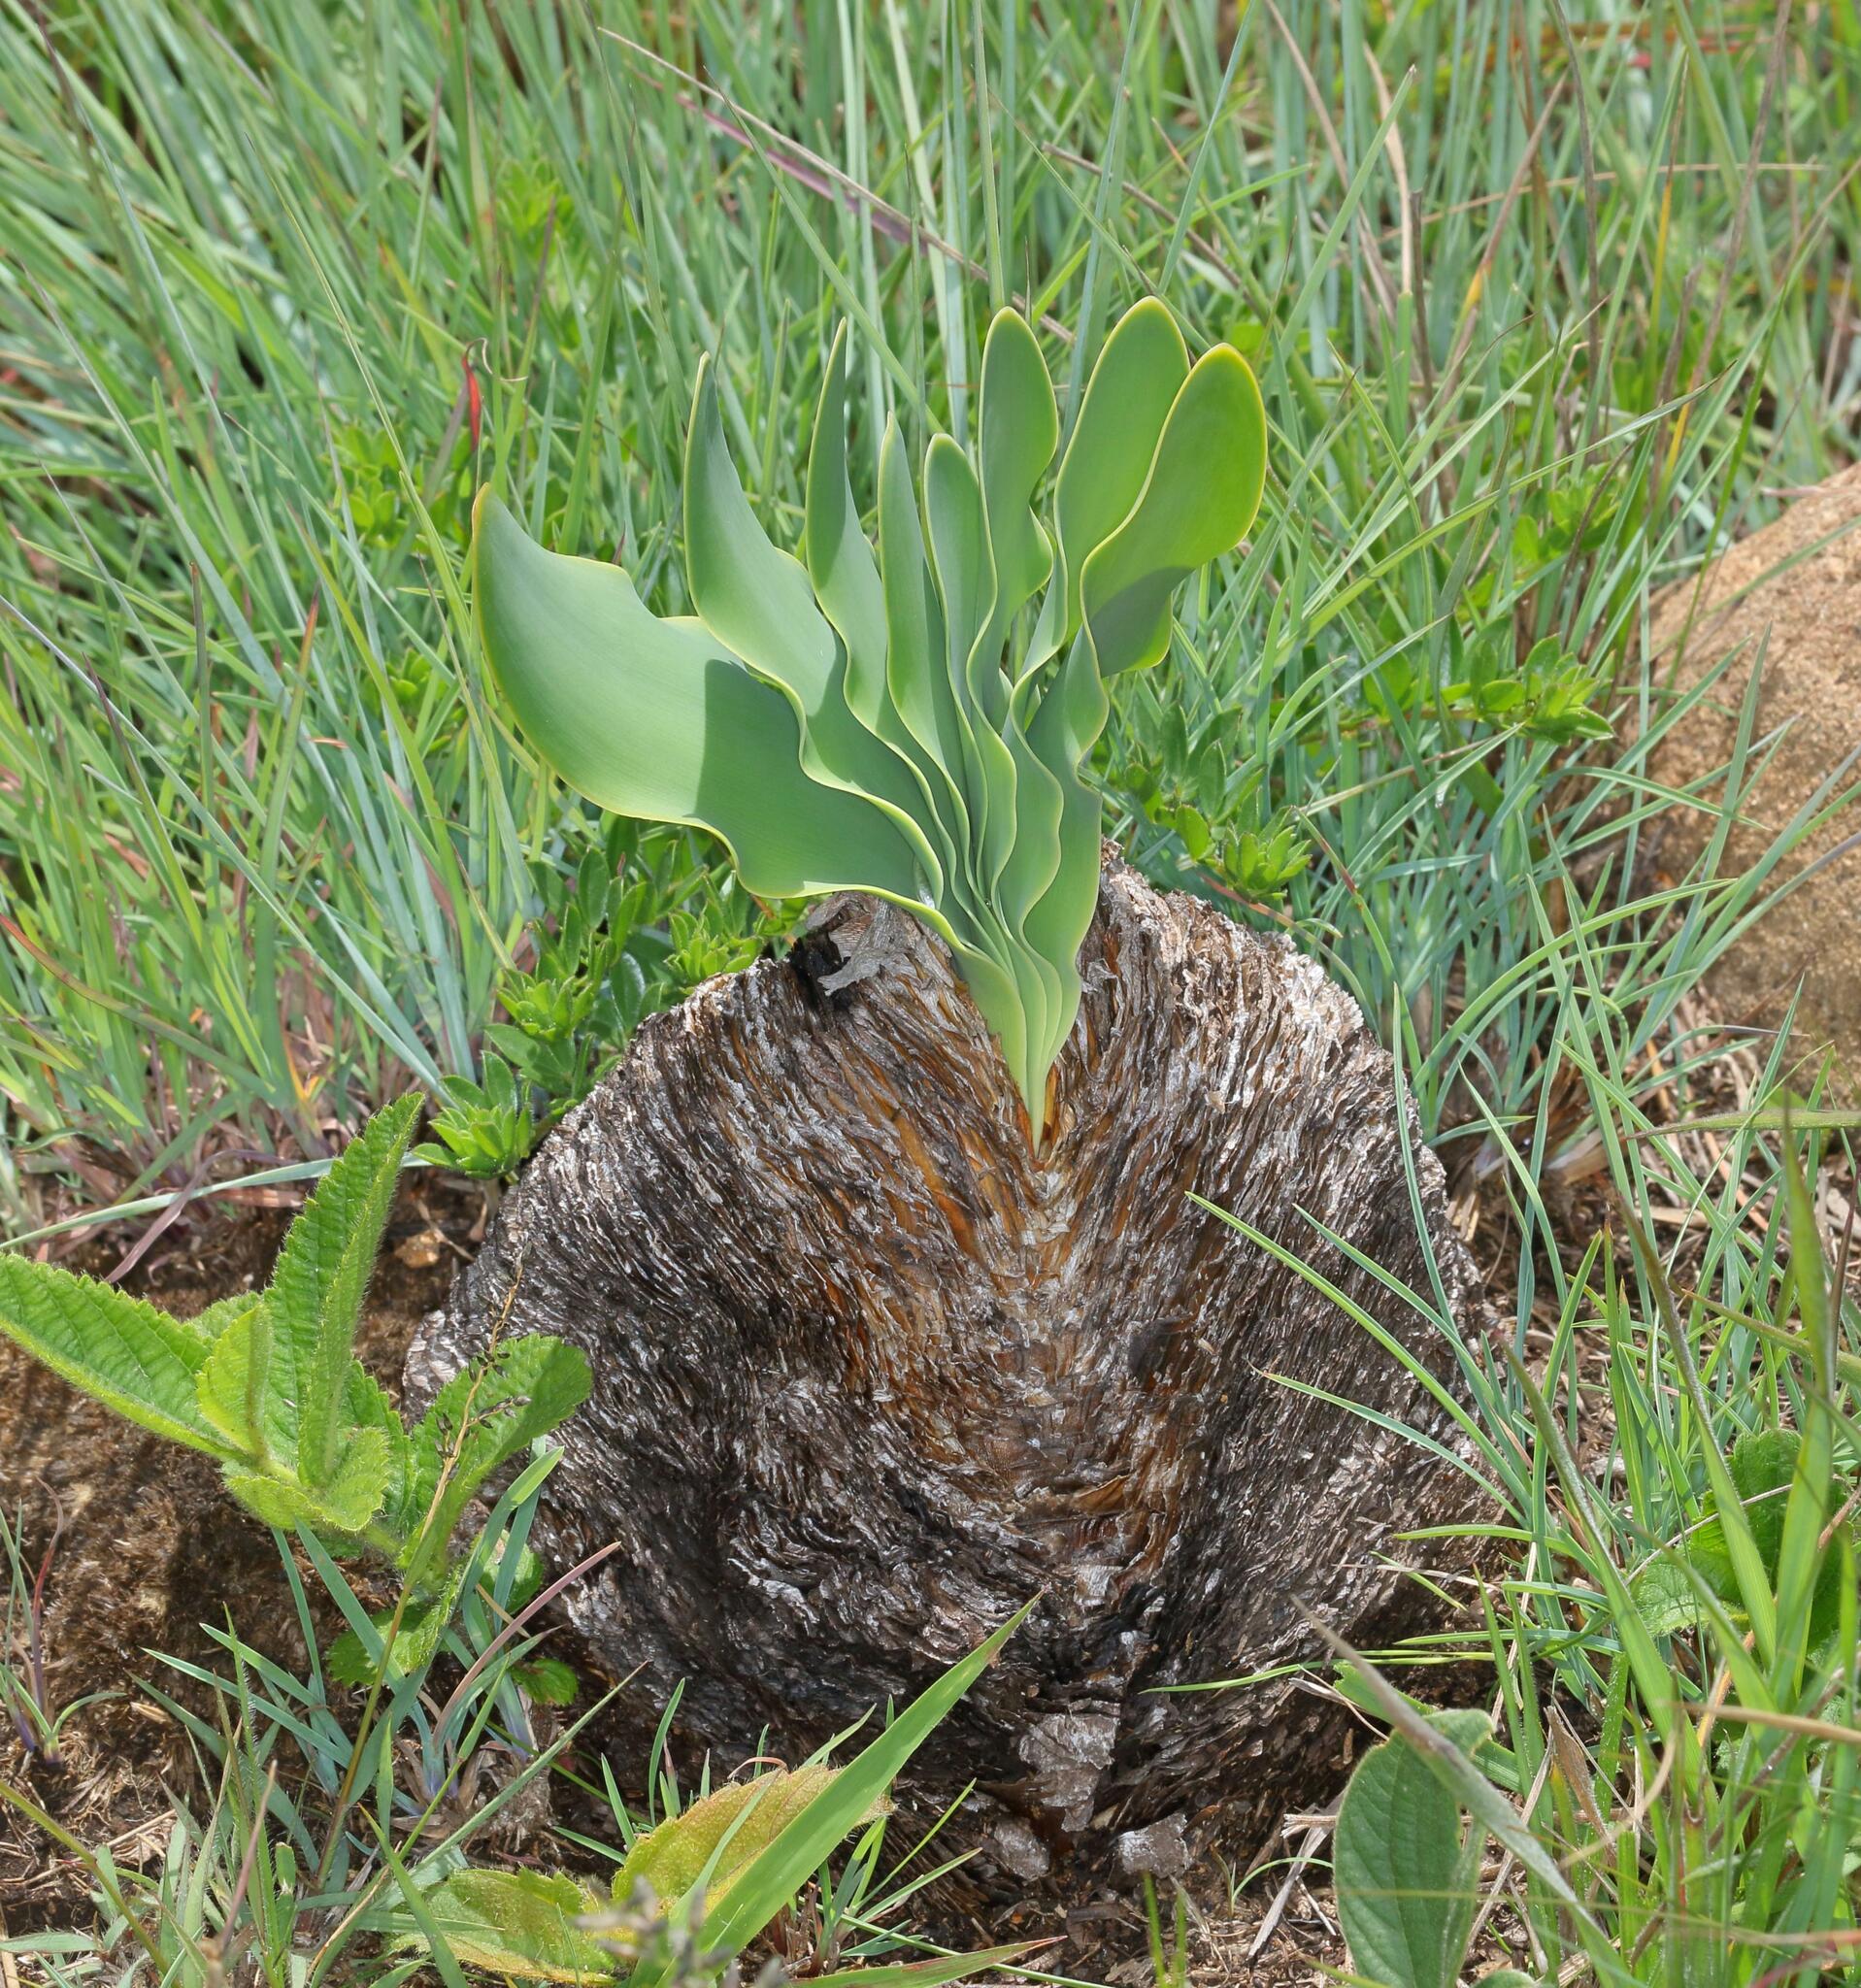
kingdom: Plantae
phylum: Tracheophyta
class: Liliopsida
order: Asparagales
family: Amaryllidaceae
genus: Boophone
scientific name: Boophone disticha
